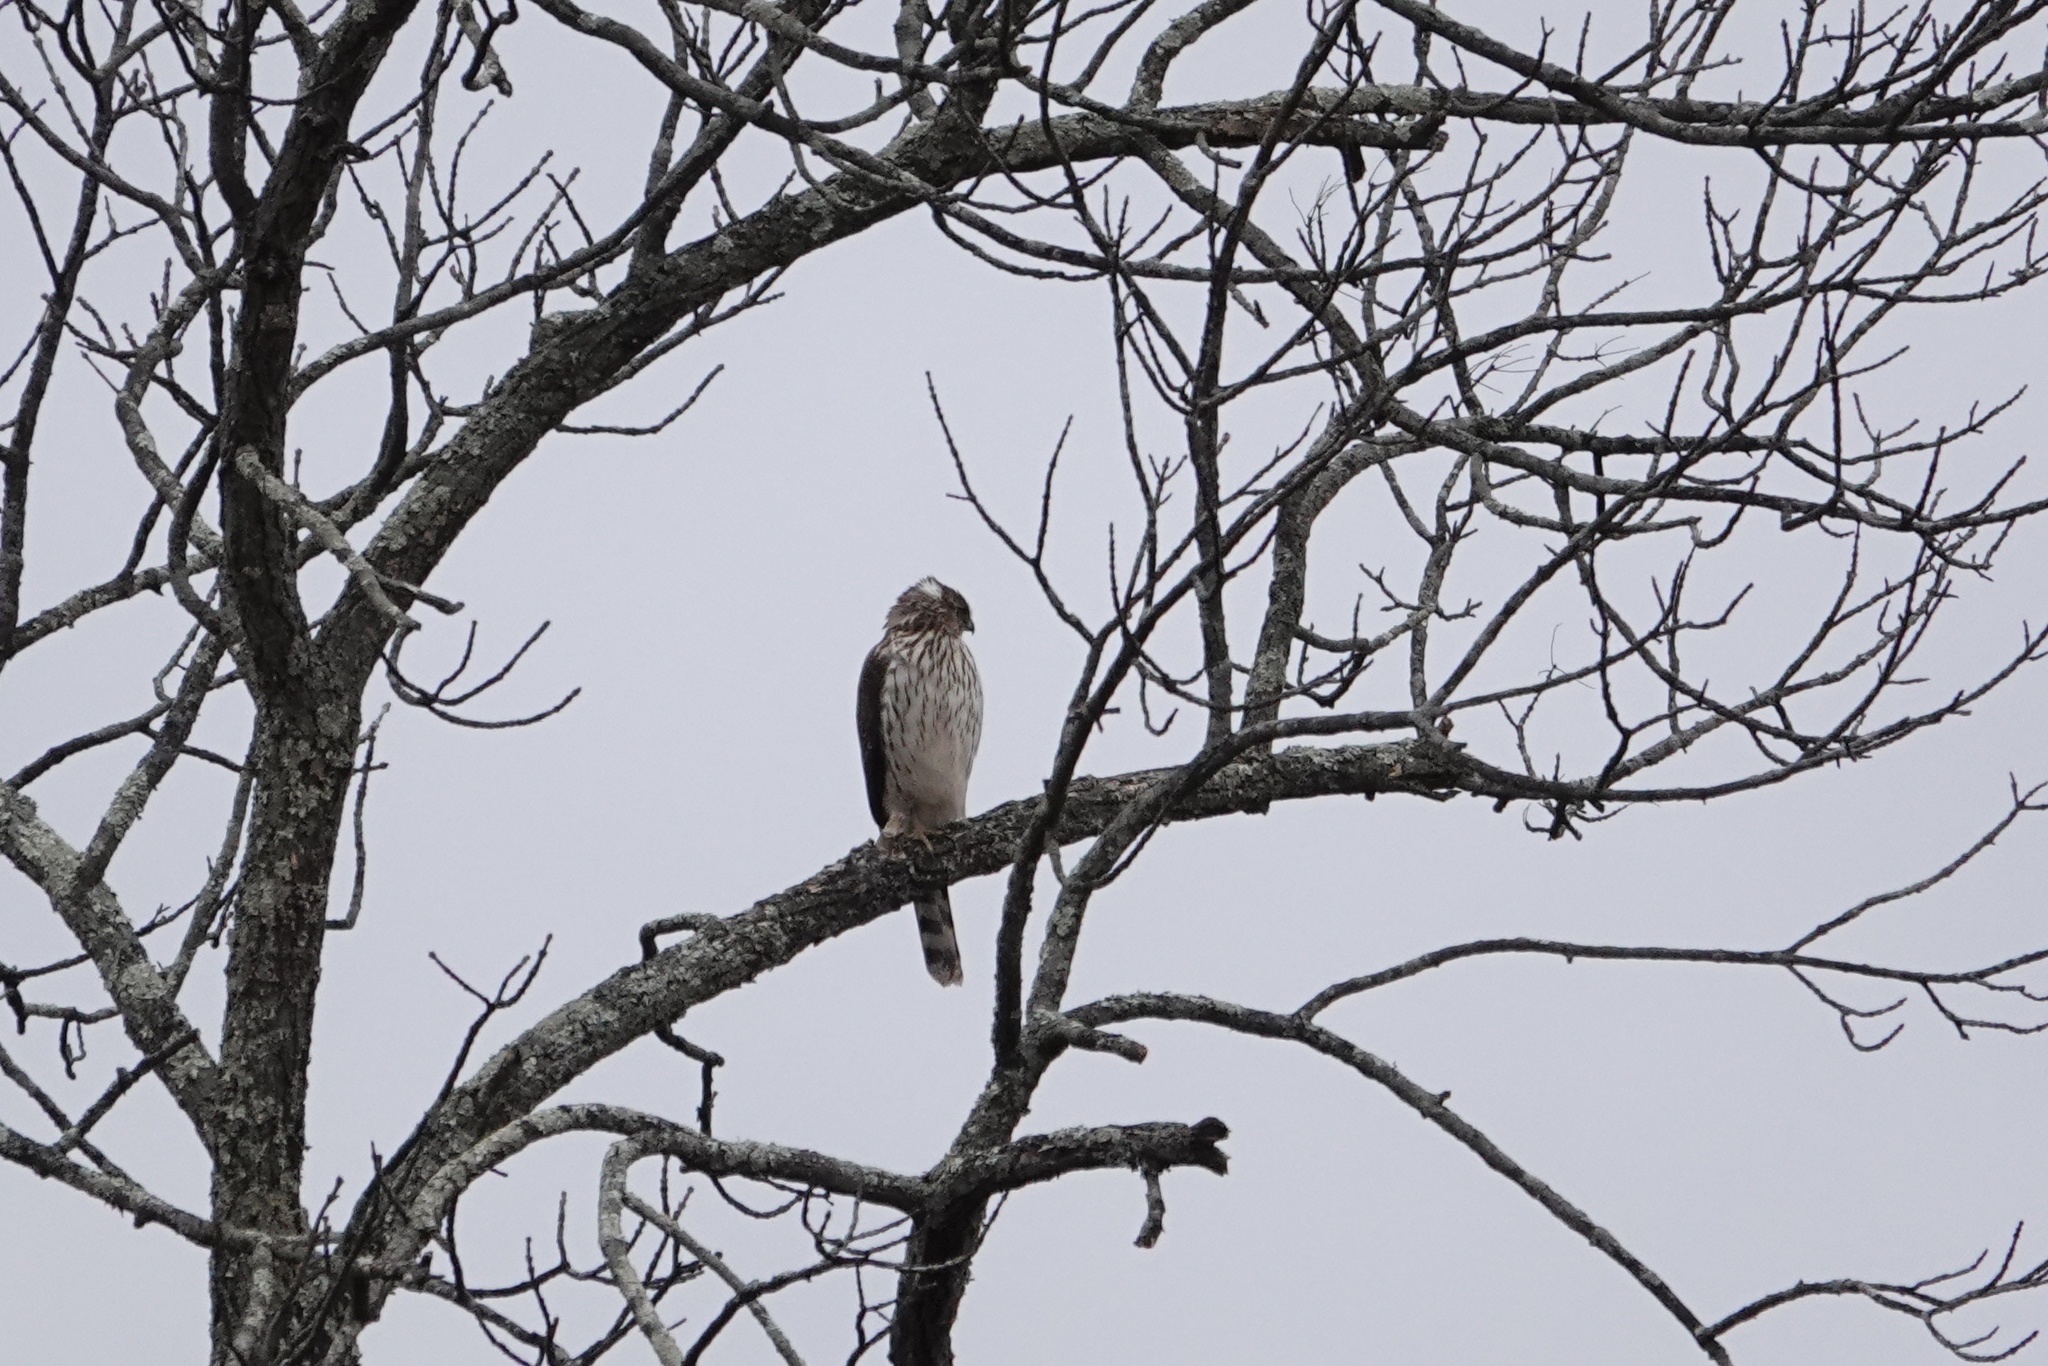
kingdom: Animalia
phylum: Chordata
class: Aves
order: Accipitriformes
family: Accipitridae
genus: Accipiter
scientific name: Accipiter cooperii
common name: Cooper's hawk
